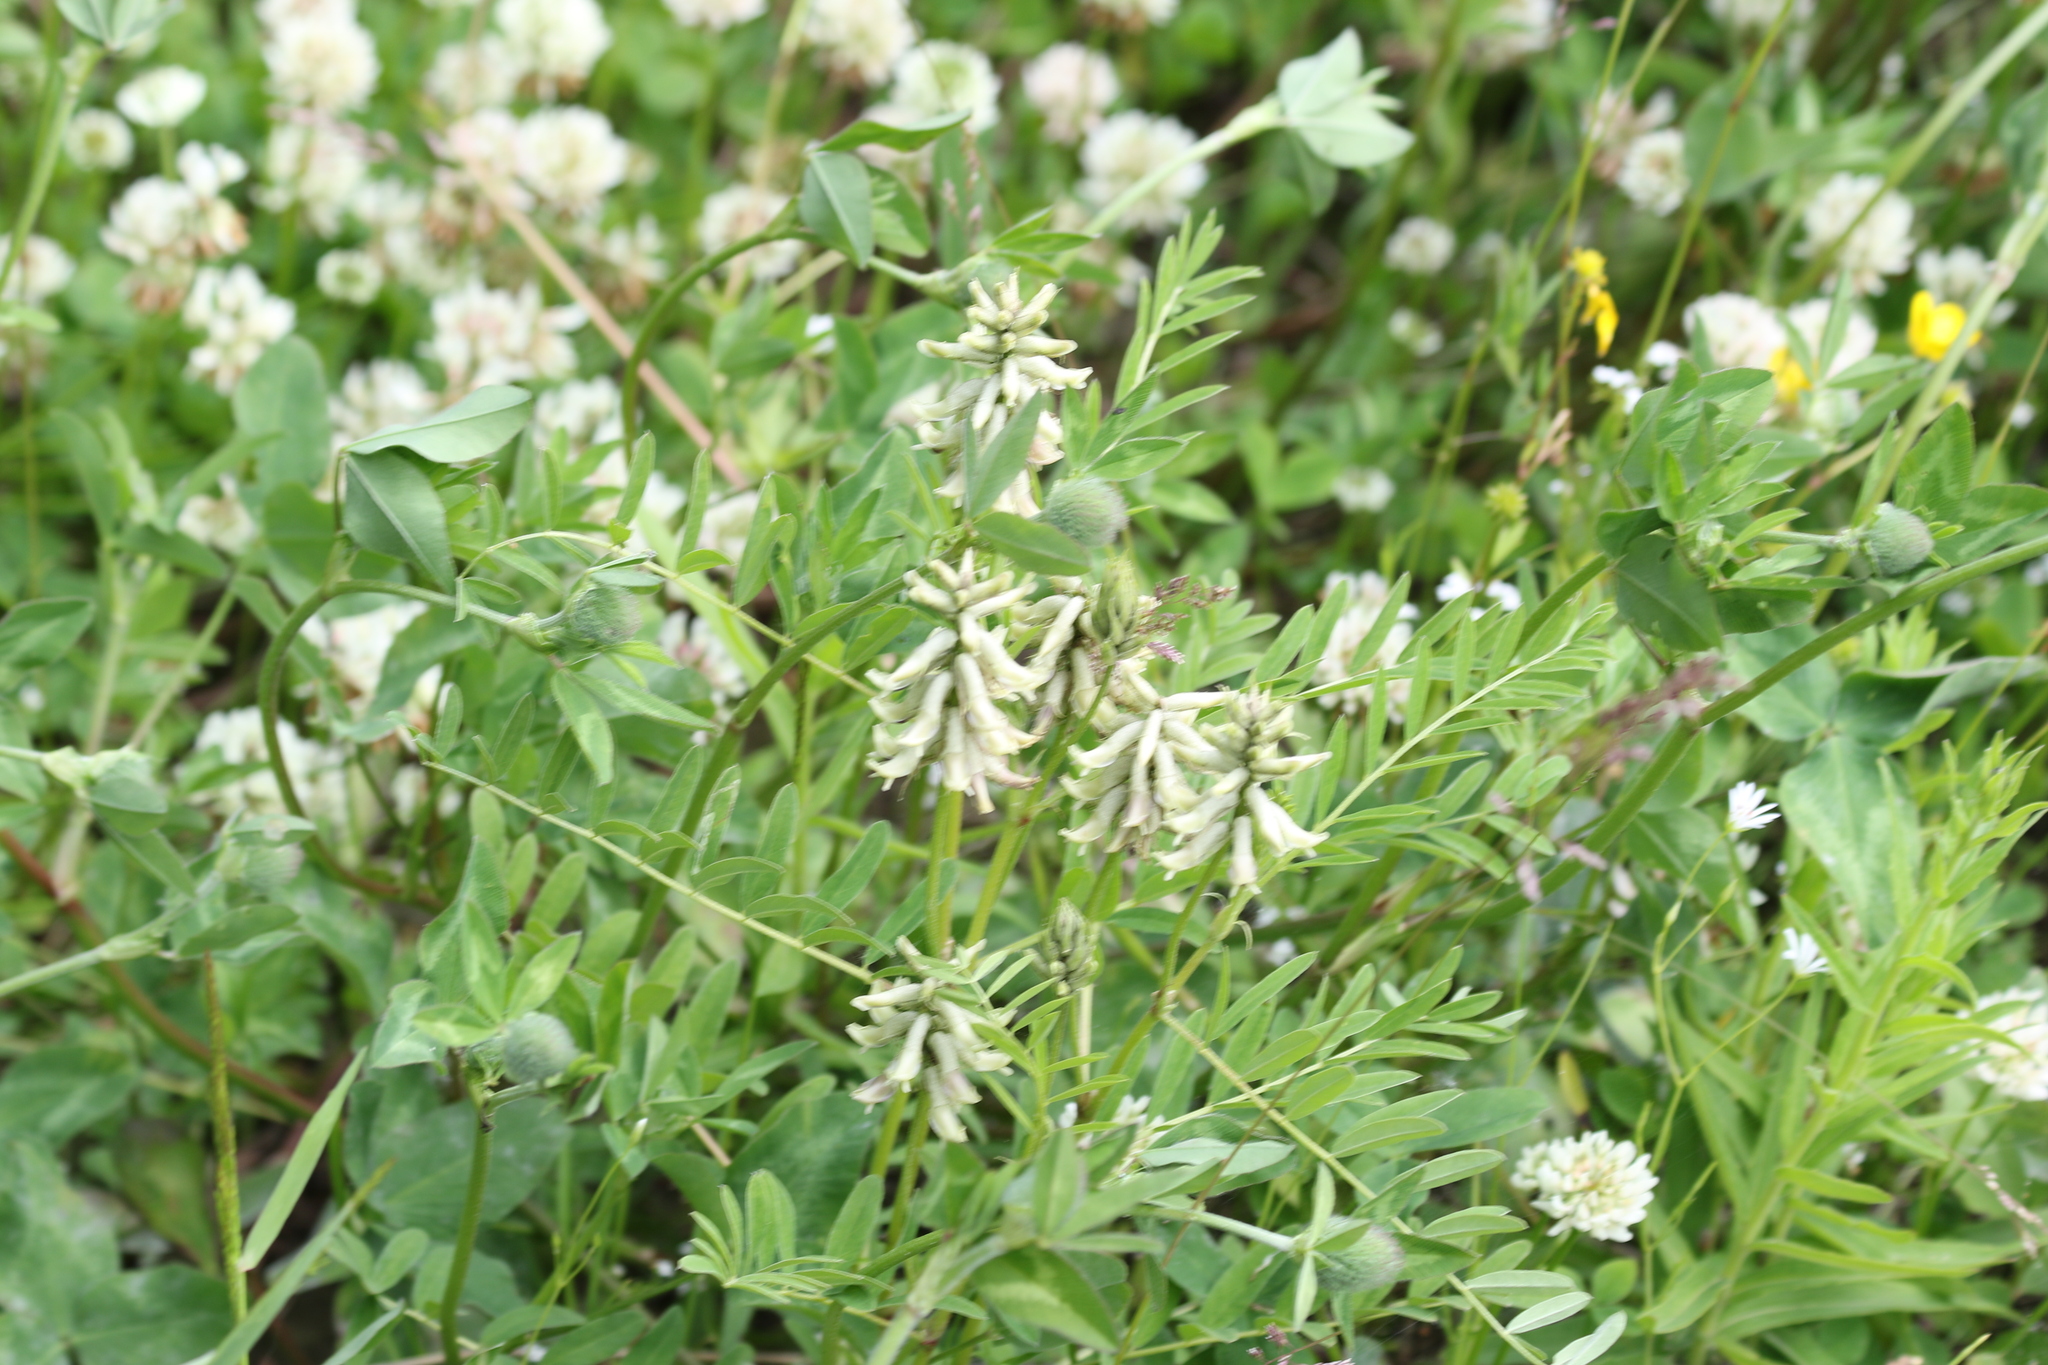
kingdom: Plantae
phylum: Tracheophyta
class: Magnoliopsida
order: Fabales
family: Fabaceae
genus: Astragalus
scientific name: Astragalus uliginosus
